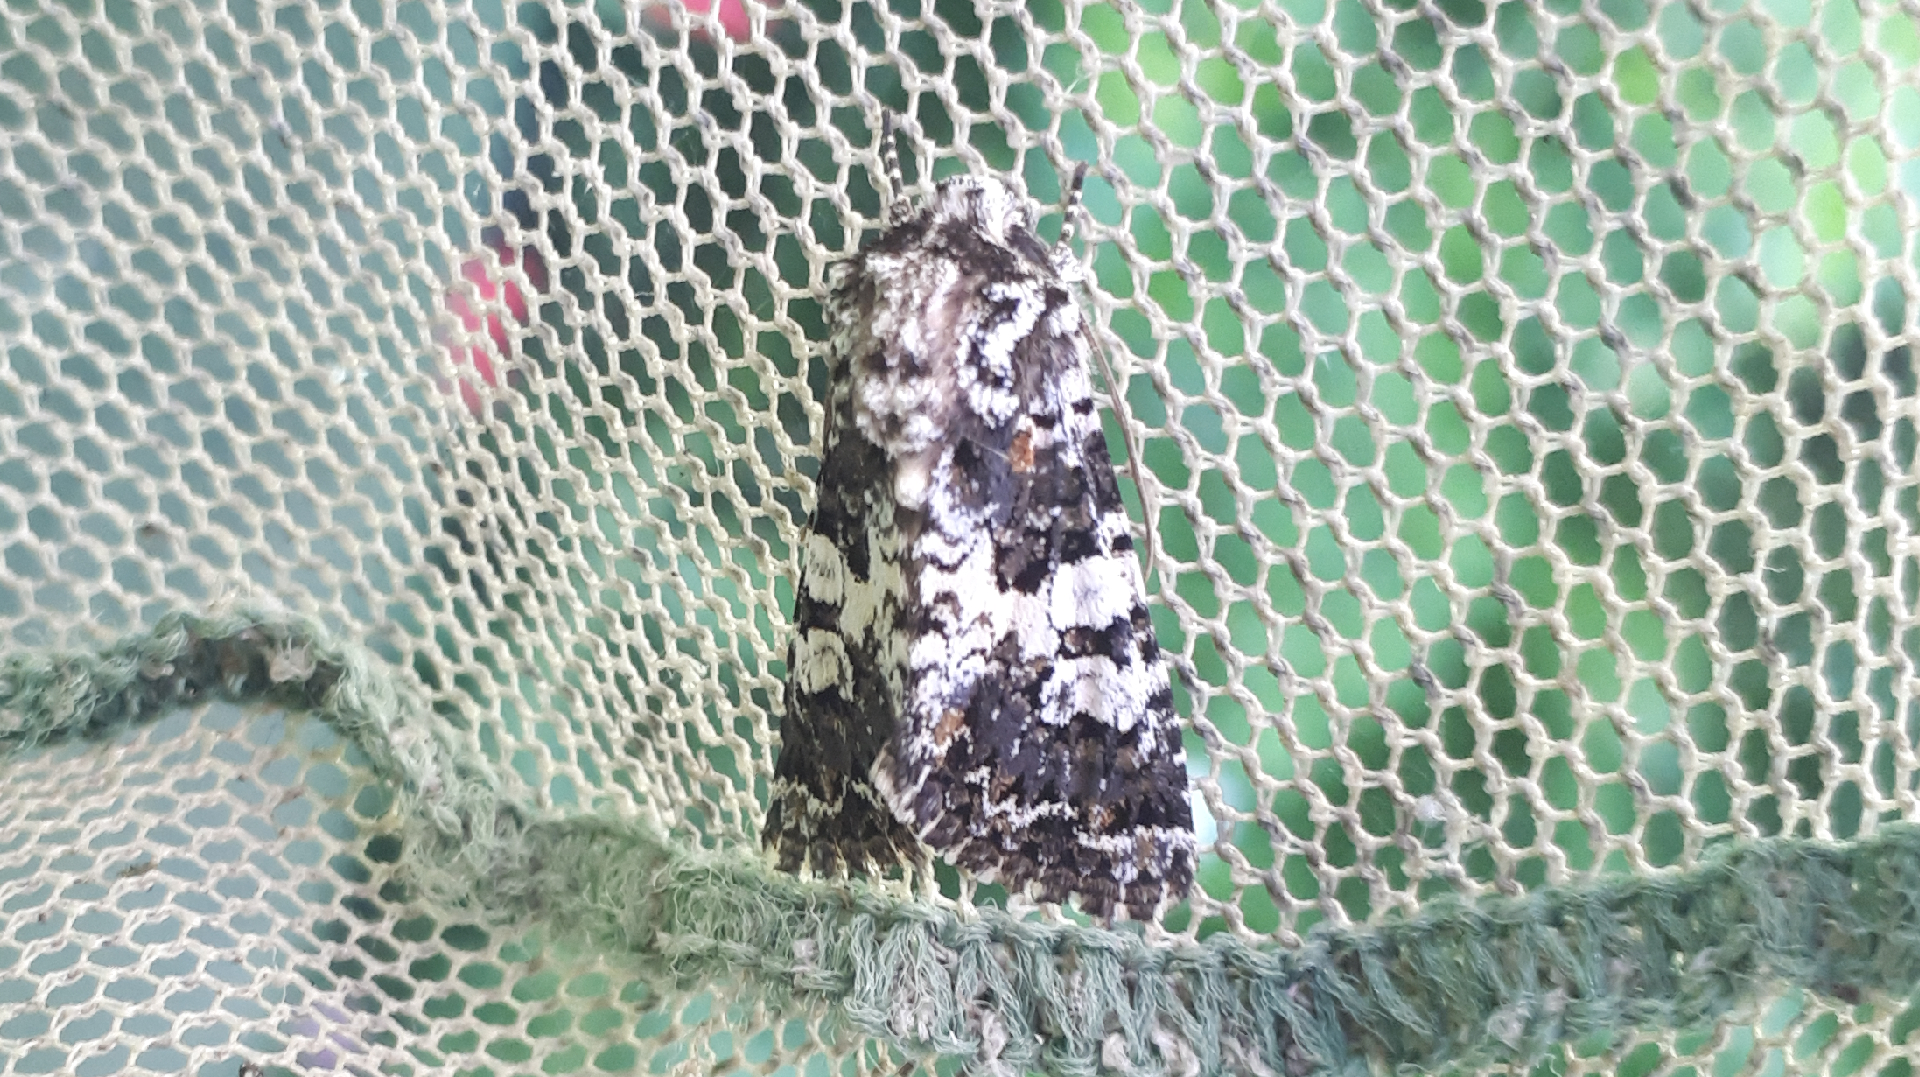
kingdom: Animalia
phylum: Arthropoda
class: Insecta
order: Lepidoptera
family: Noctuidae
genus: Hadena
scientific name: Hadena compta
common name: Varied coronet
